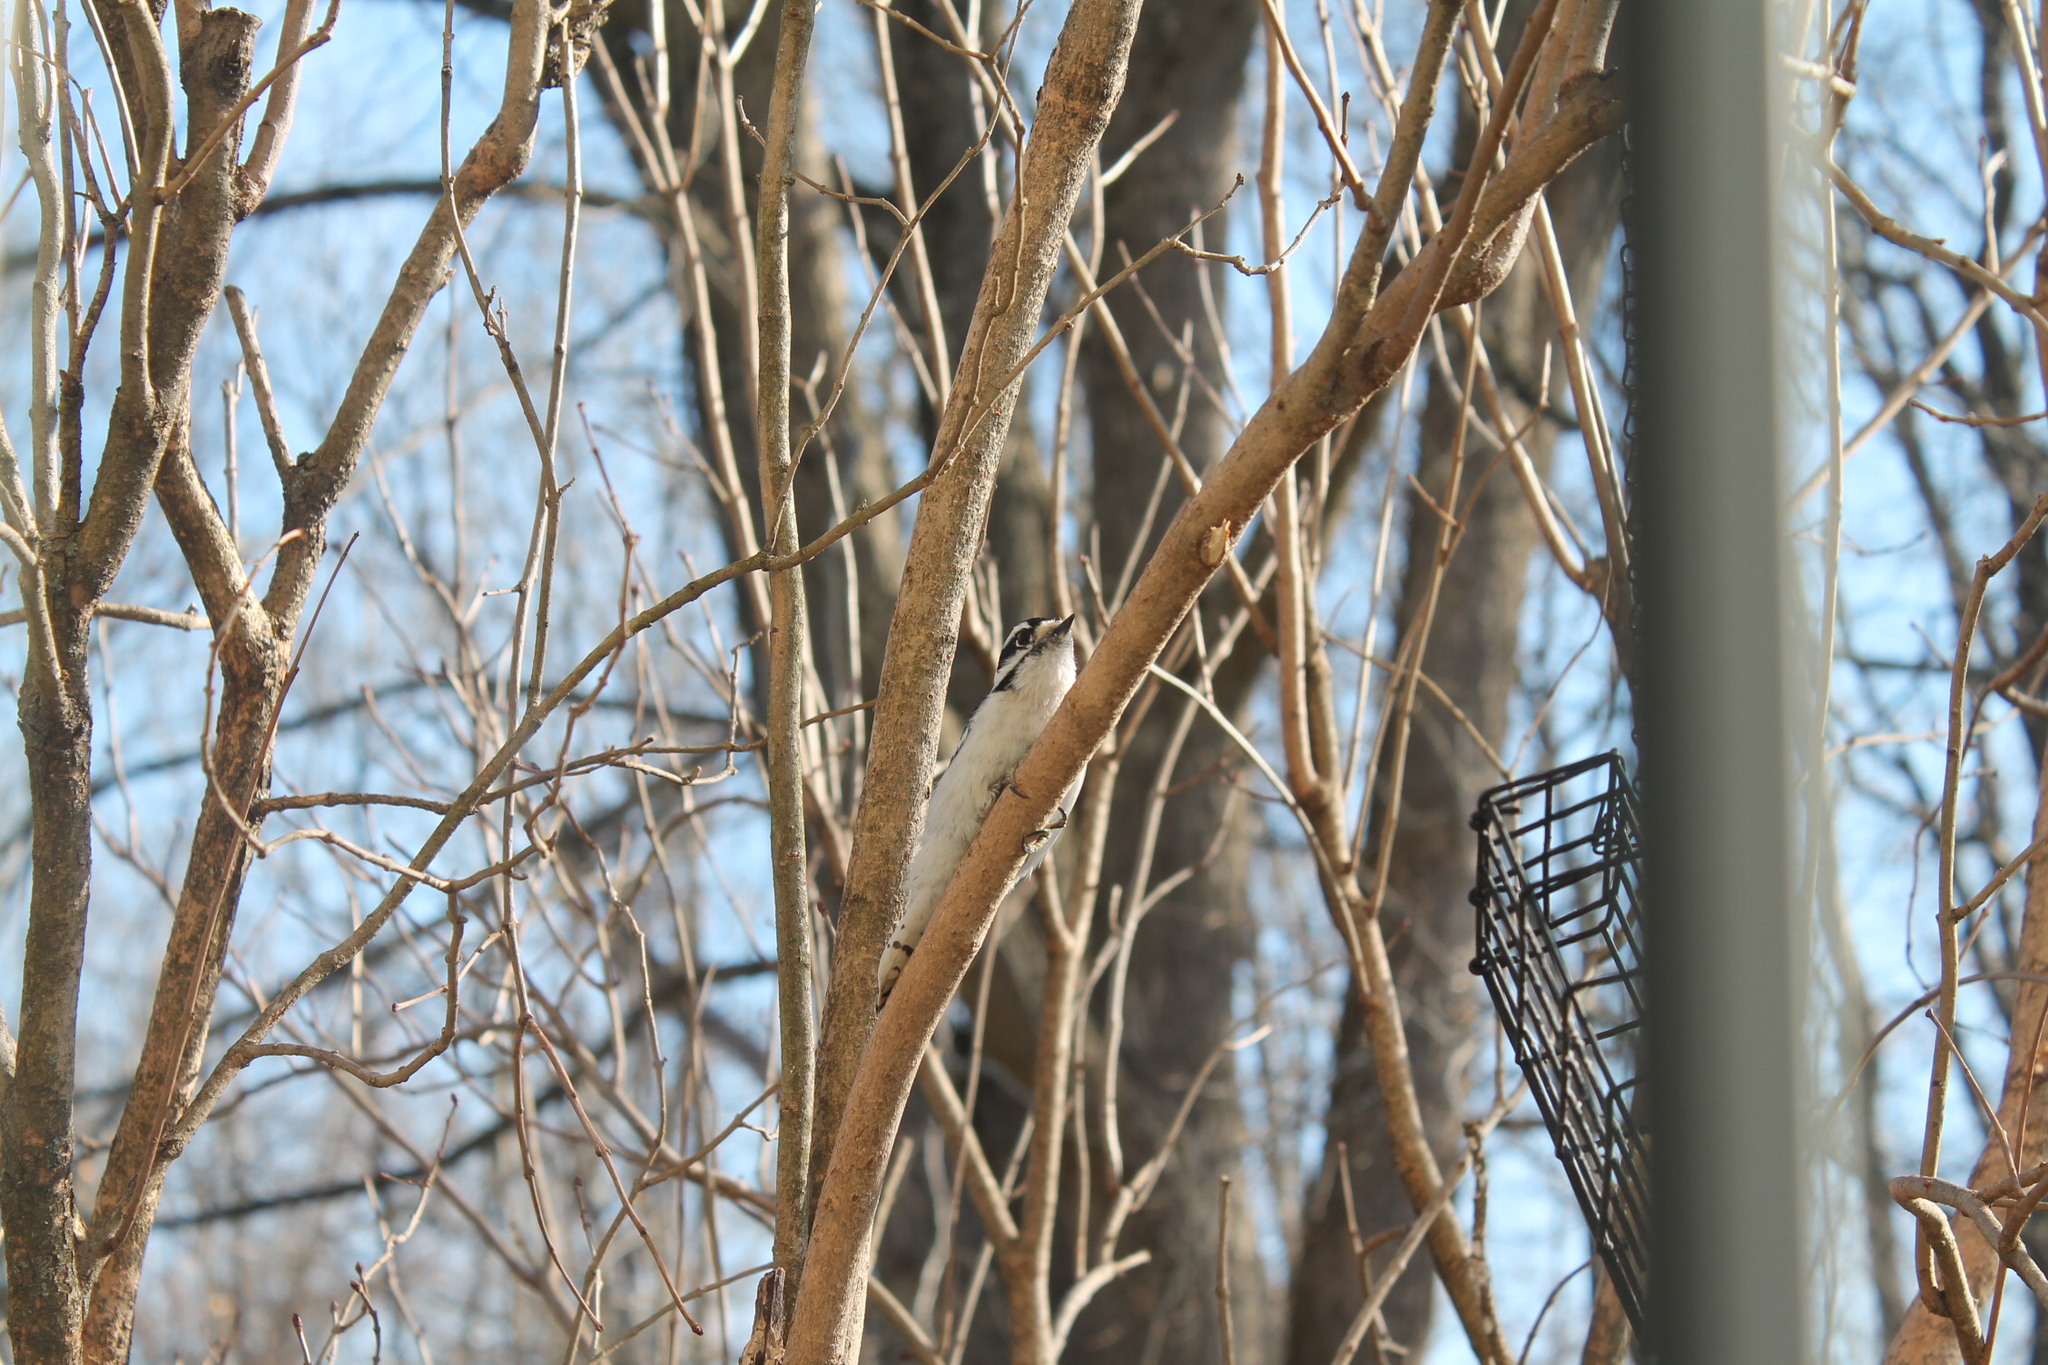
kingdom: Animalia
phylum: Chordata
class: Aves
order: Piciformes
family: Picidae
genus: Dryobates
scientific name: Dryobates pubescens
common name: Downy woodpecker
